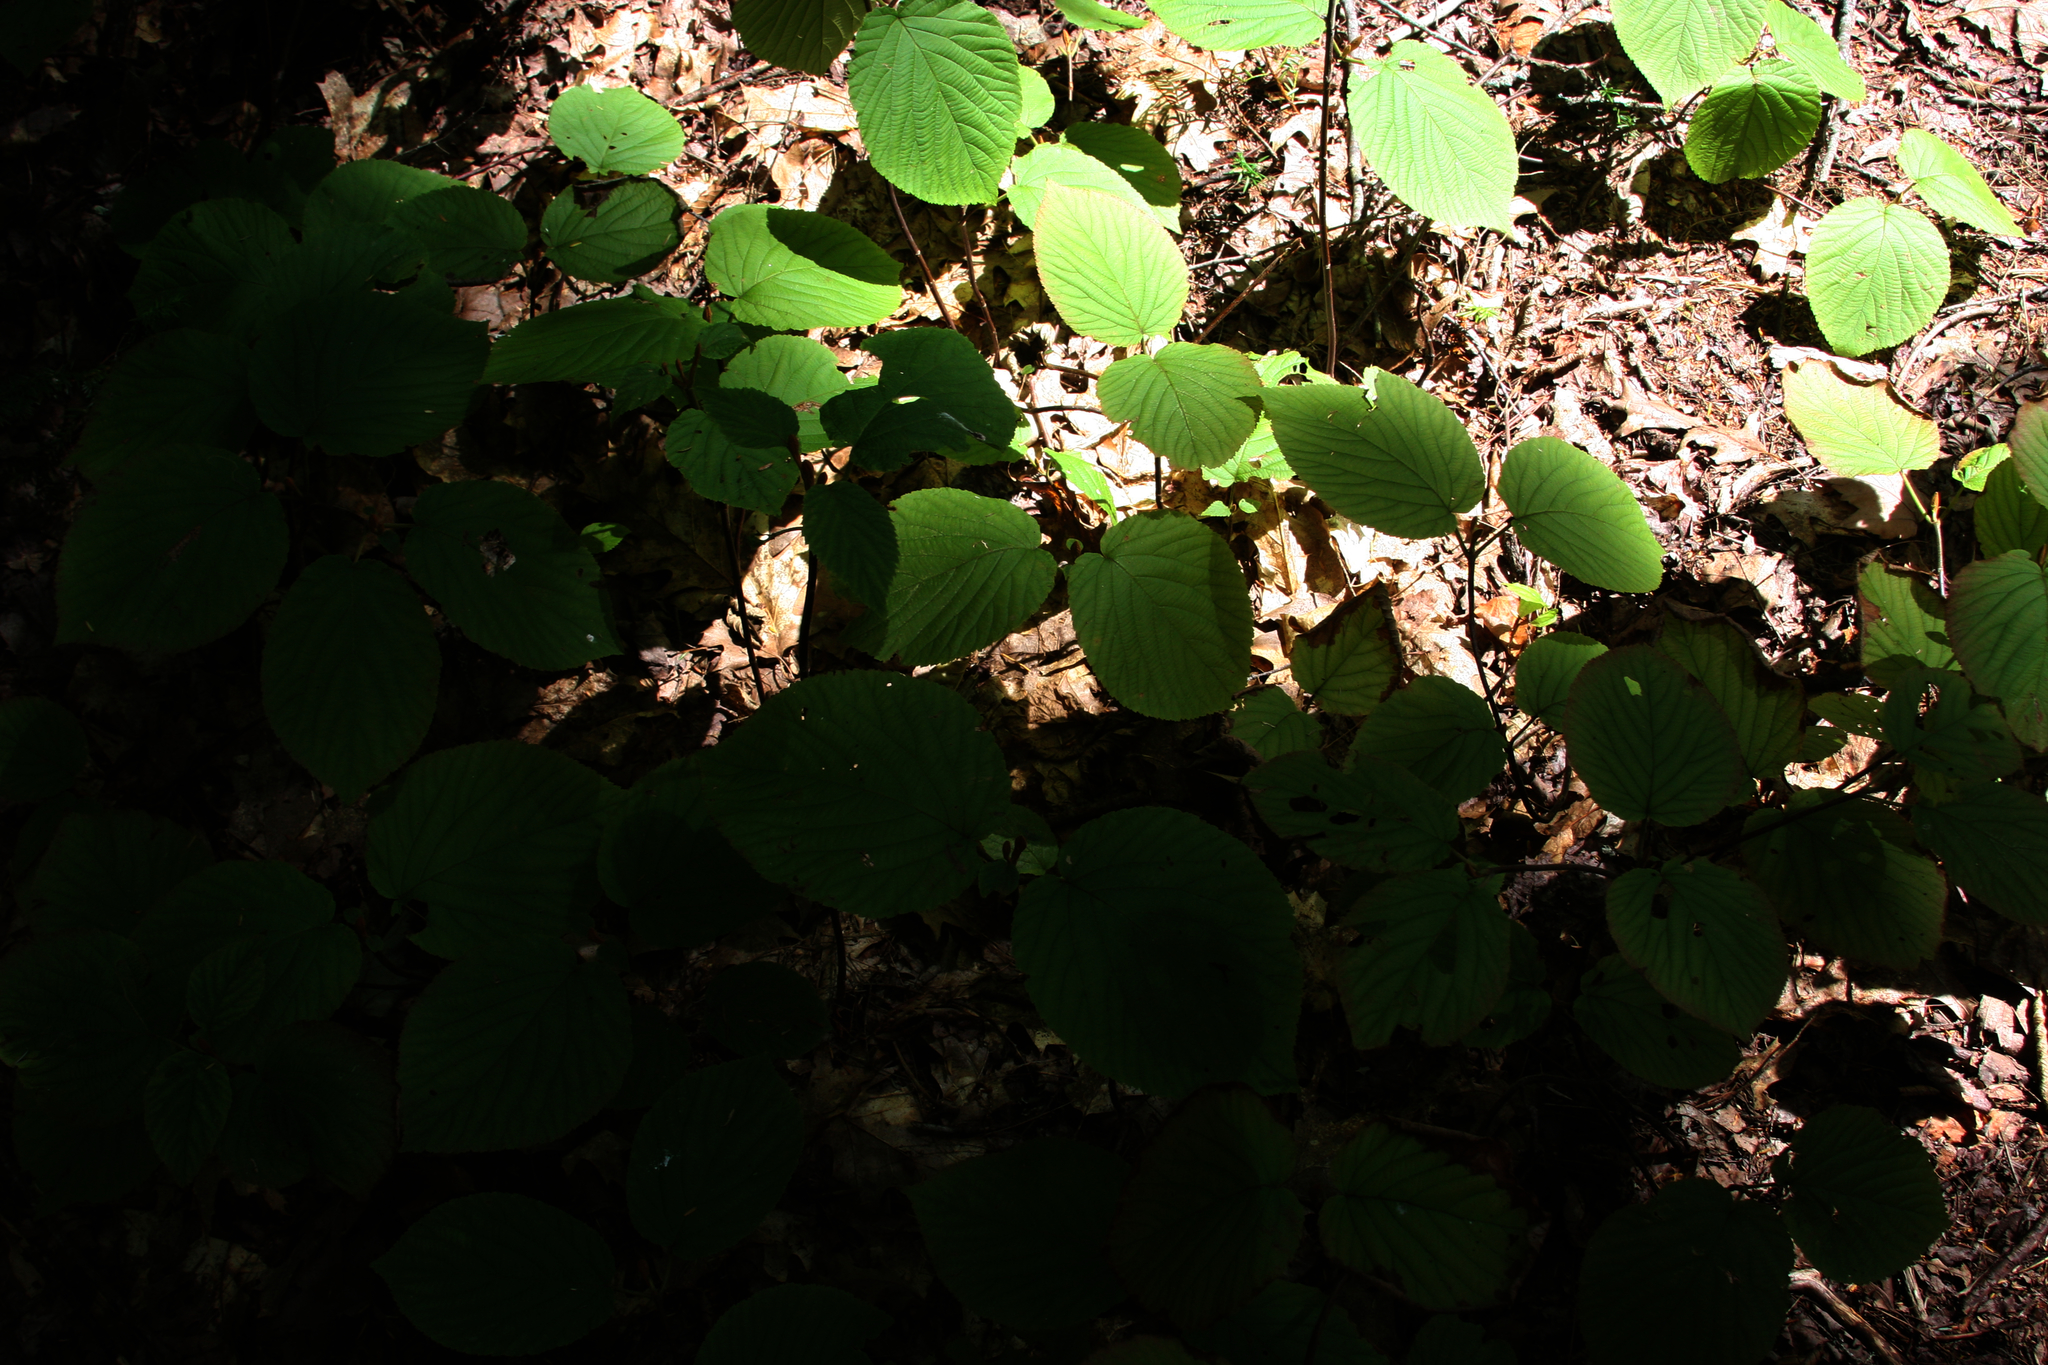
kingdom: Plantae
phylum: Tracheophyta
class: Magnoliopsida
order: Dipsacales
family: Viburnaceae
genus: Viburnum
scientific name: Viburnum lantanoides
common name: Hobblebush
